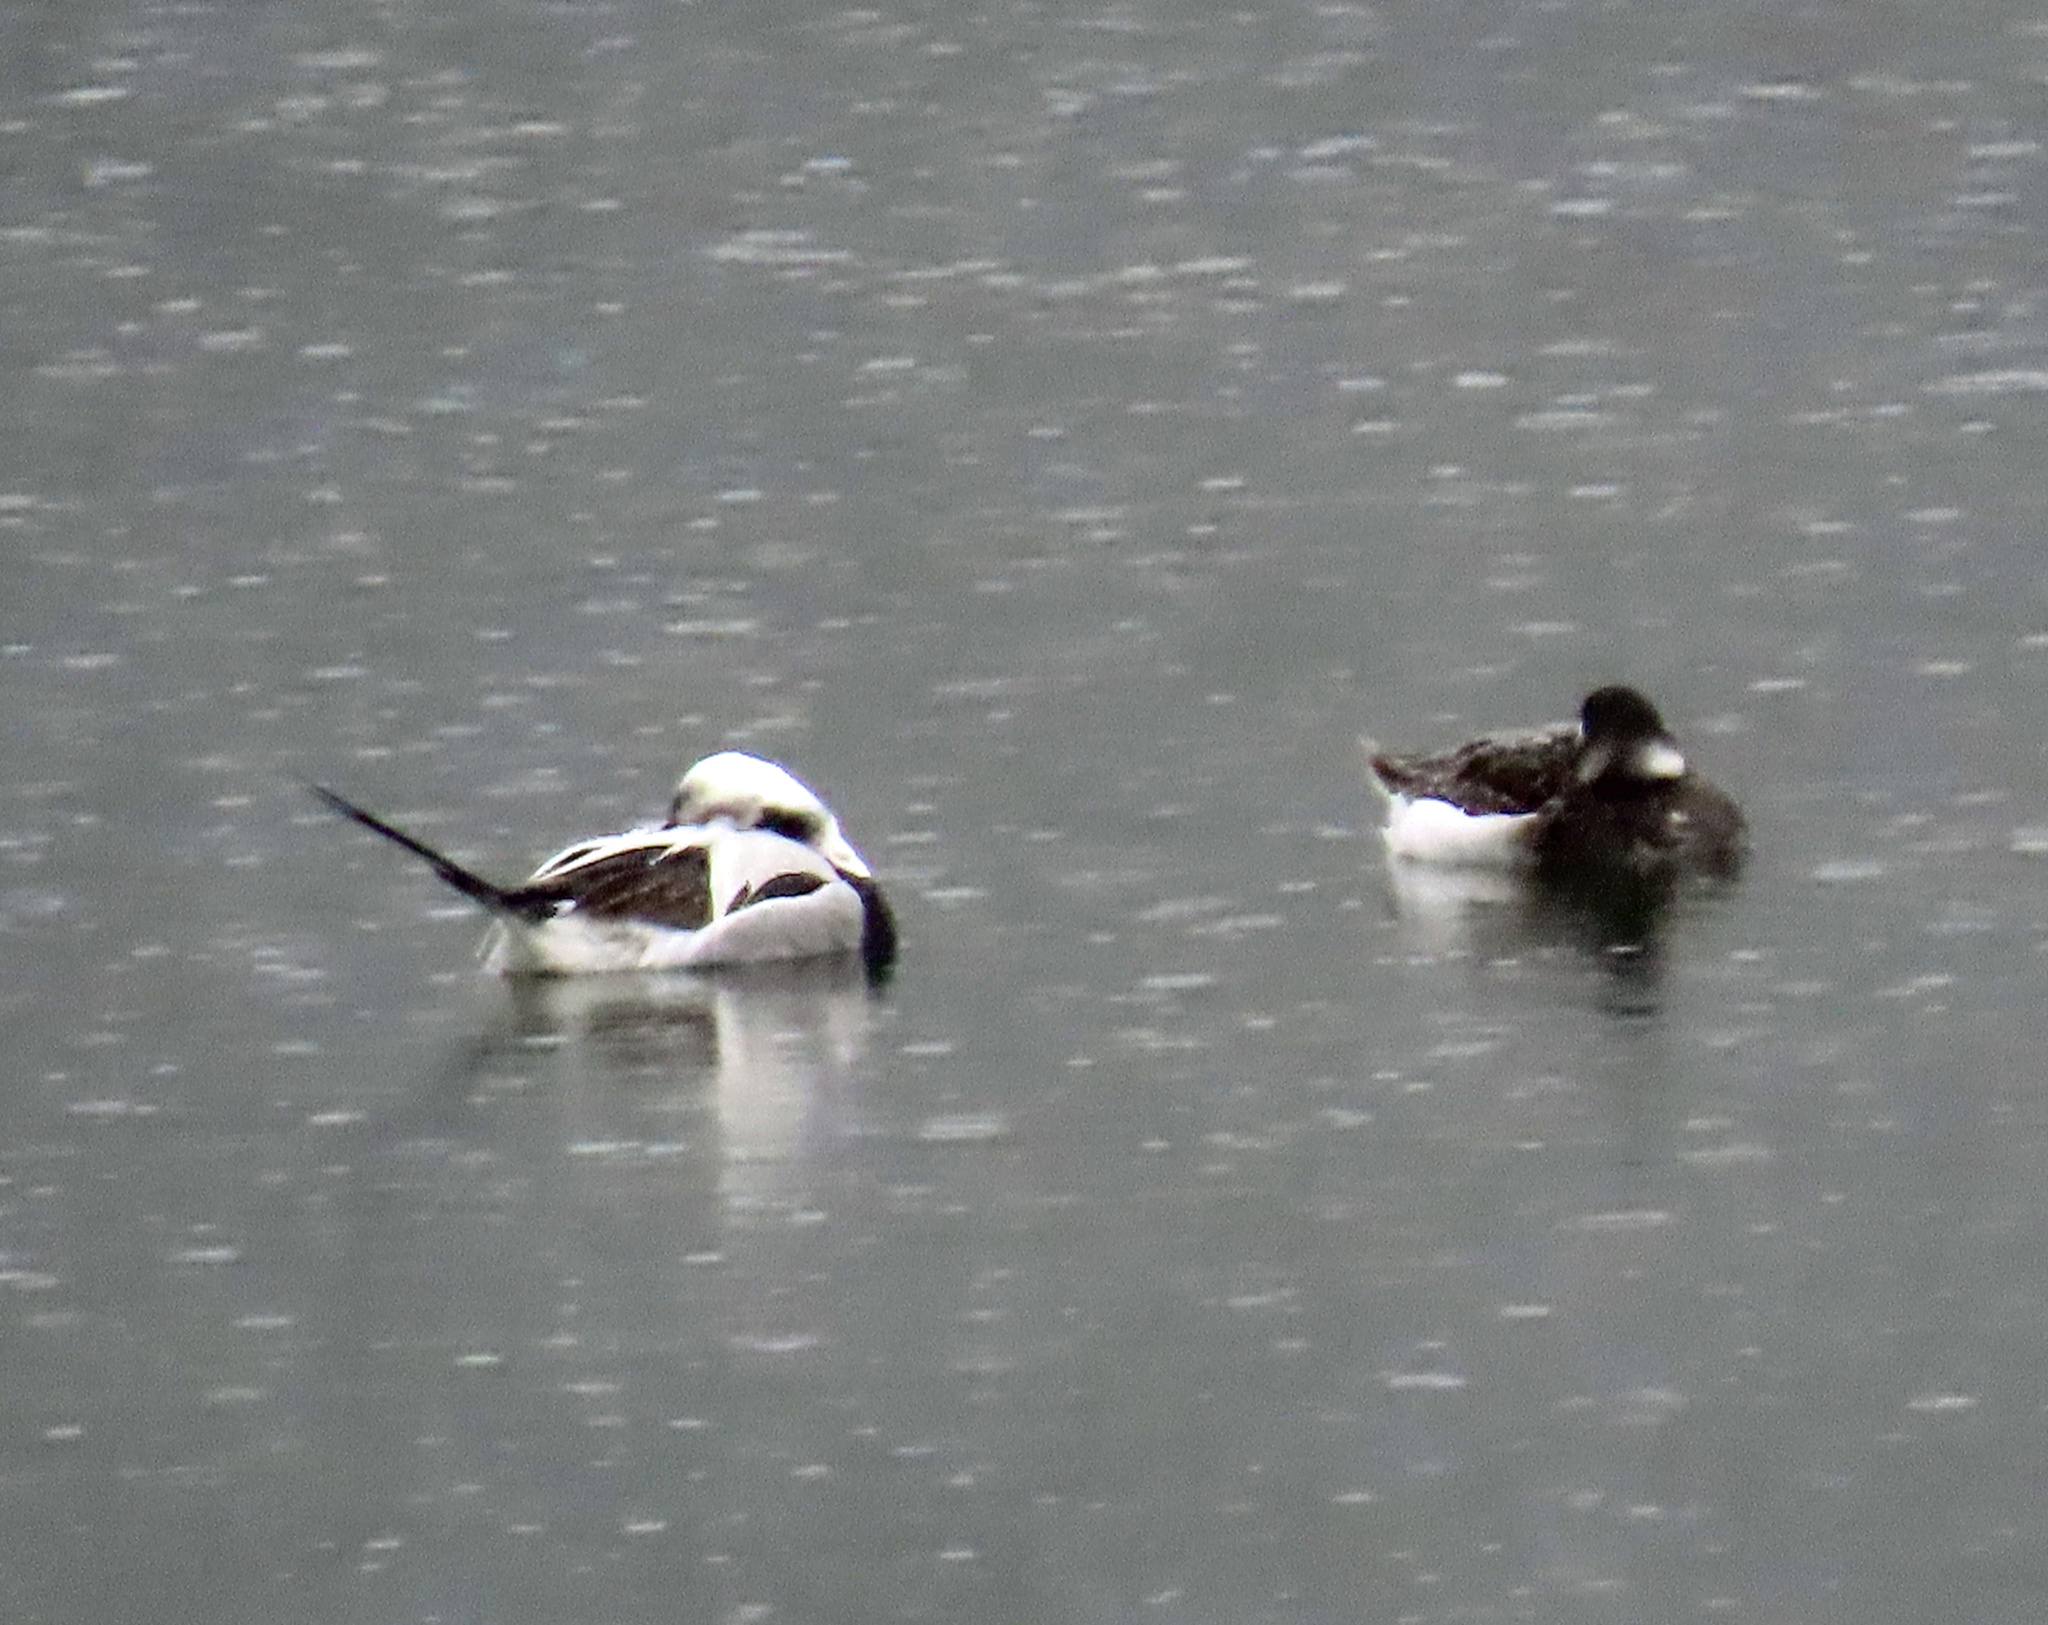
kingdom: Animalia
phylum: Chordata
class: Aves
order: Anseriformes
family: Anatidae
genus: Clangula
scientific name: Clangula hyemalis
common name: Long-tailed duck
